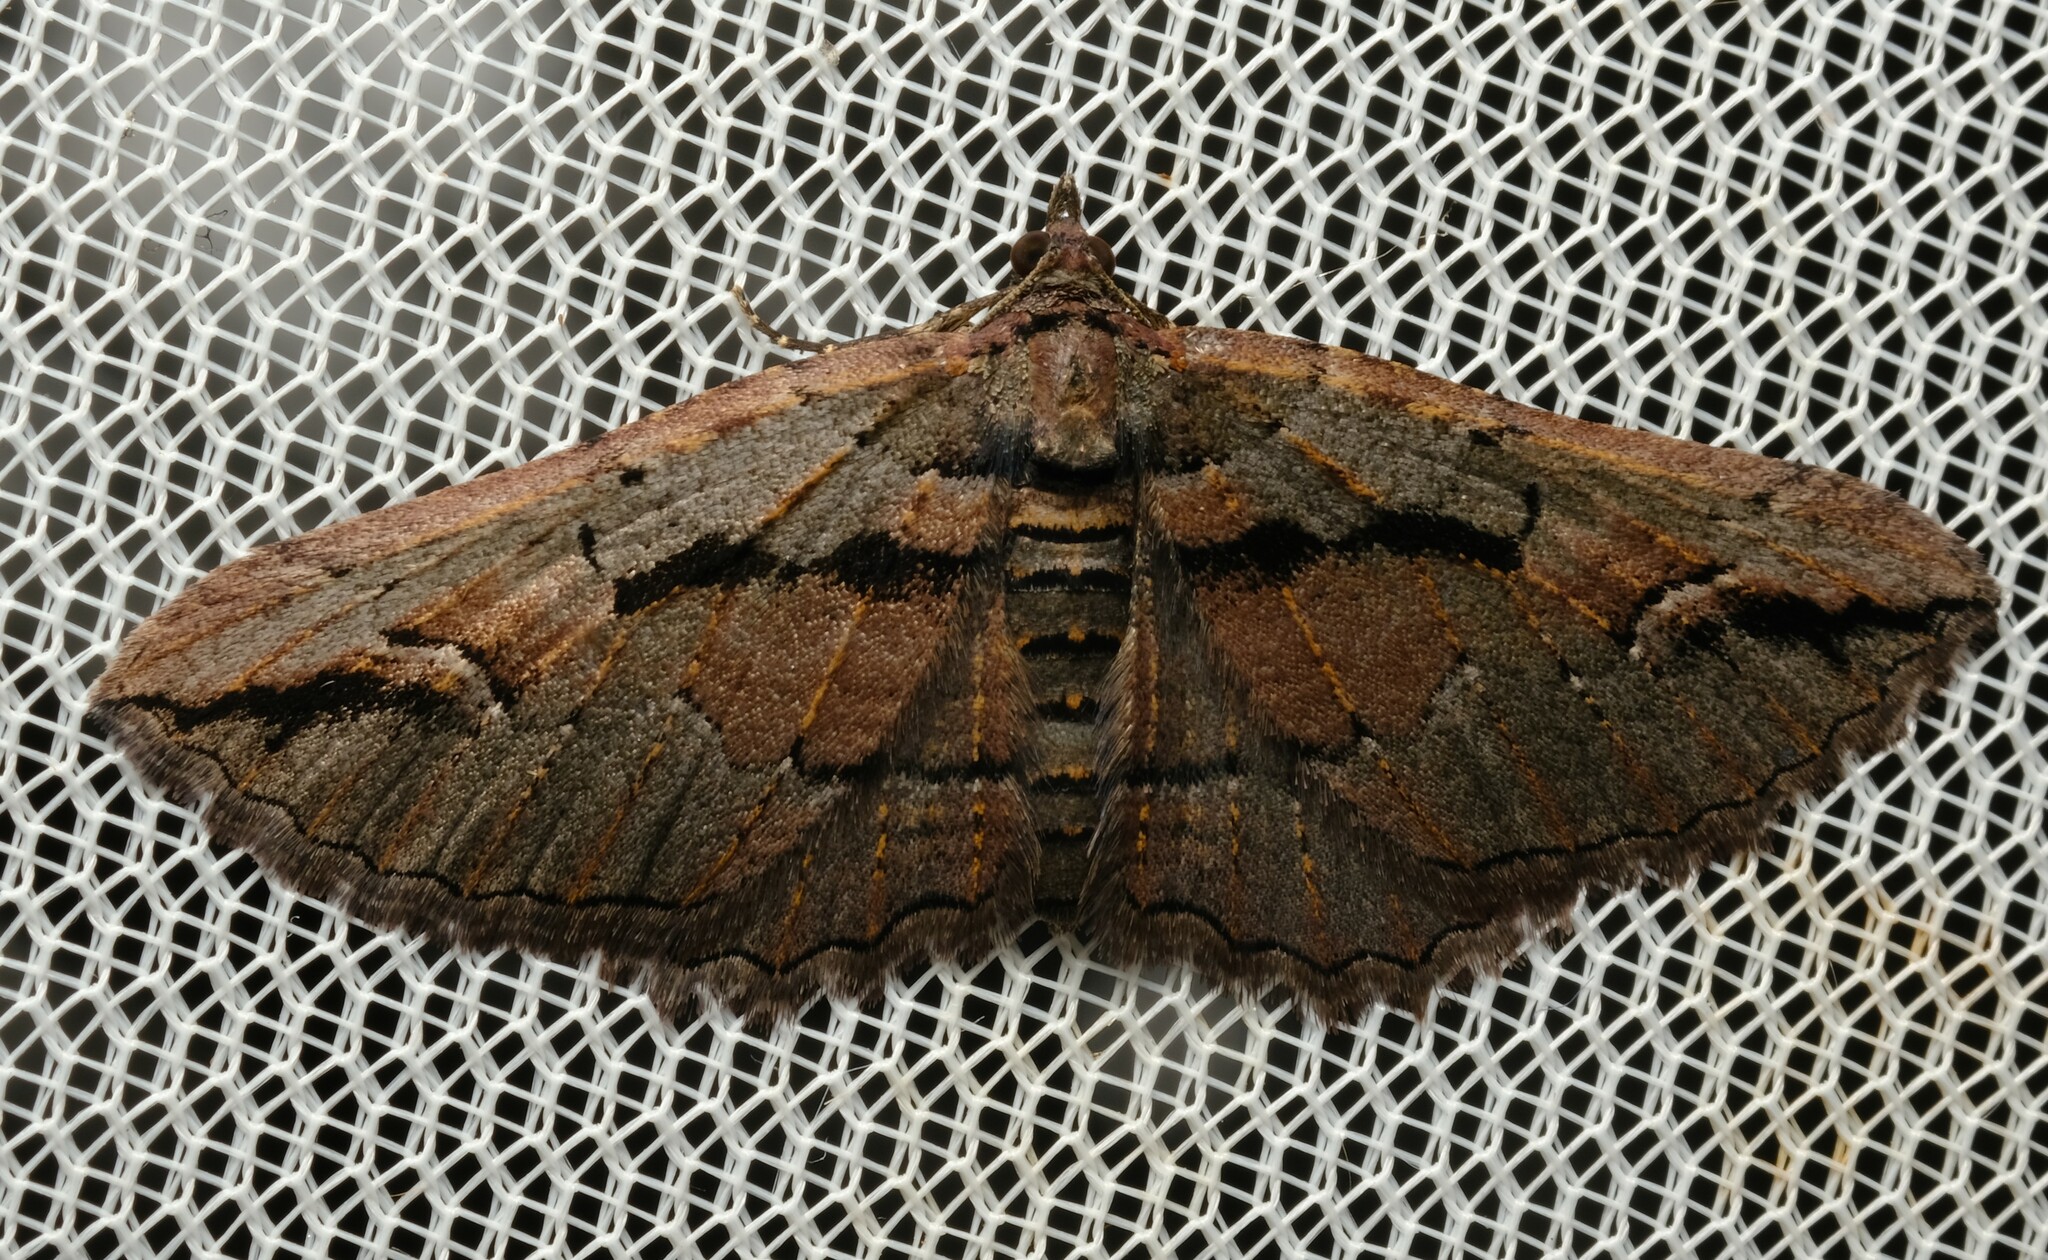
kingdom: Animalia
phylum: Arthropoda
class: Insecta
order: Lepidoptera
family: Geometridae
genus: Chrysolarentia
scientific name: Chrysolarentia plagiocausta
